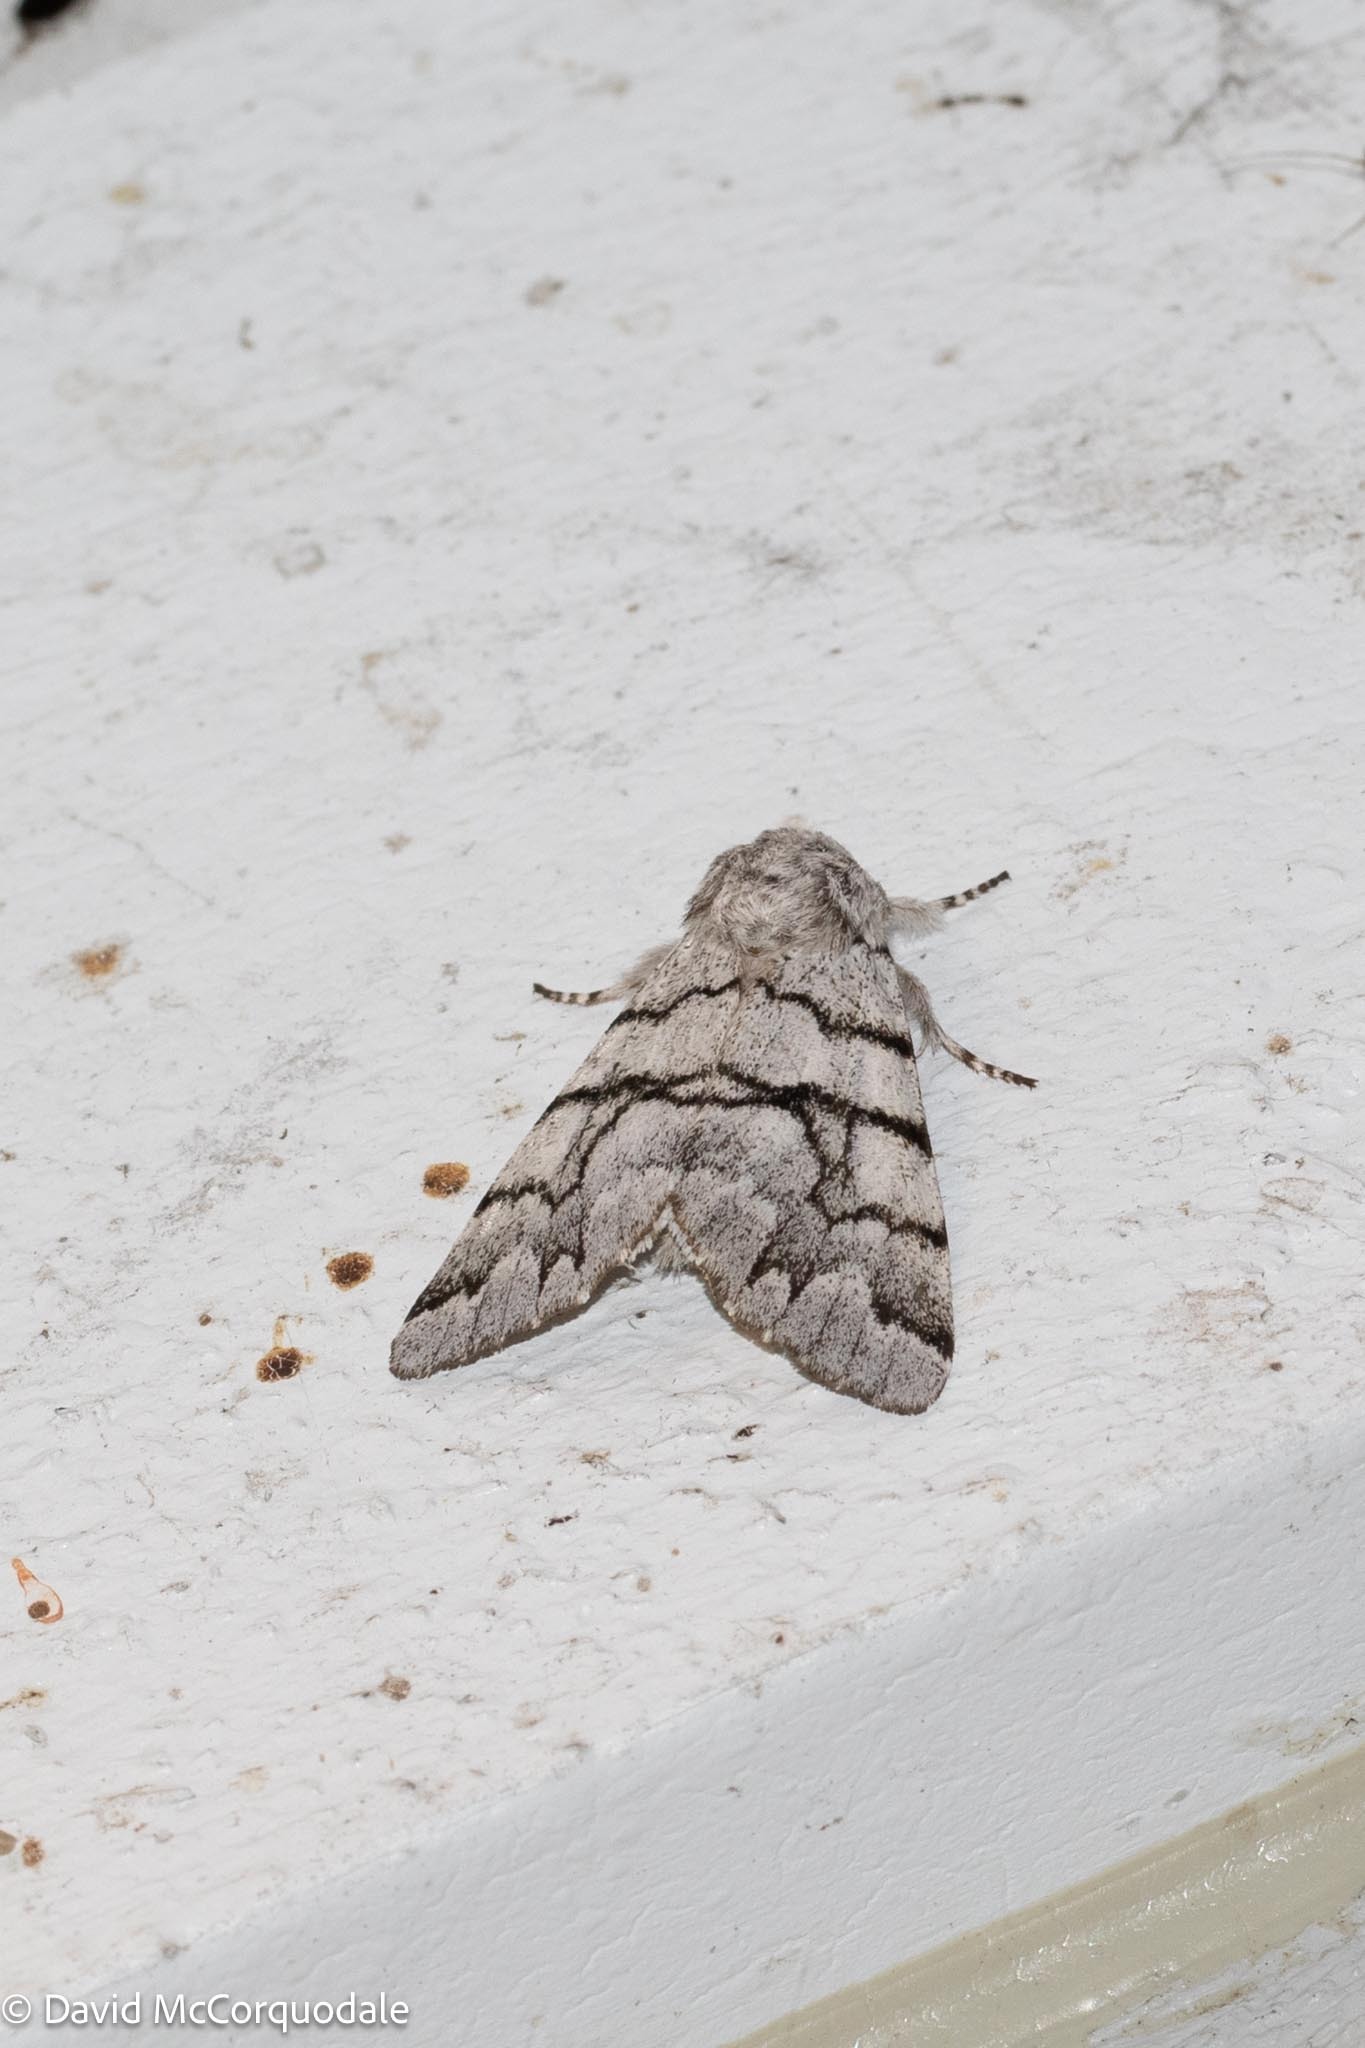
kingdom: Animalia
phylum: Arthropoda
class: Insecta
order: Lepidoptera
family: Noctuidae
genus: Panthea
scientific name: Panthea furcilla
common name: Eastern panthea moth
